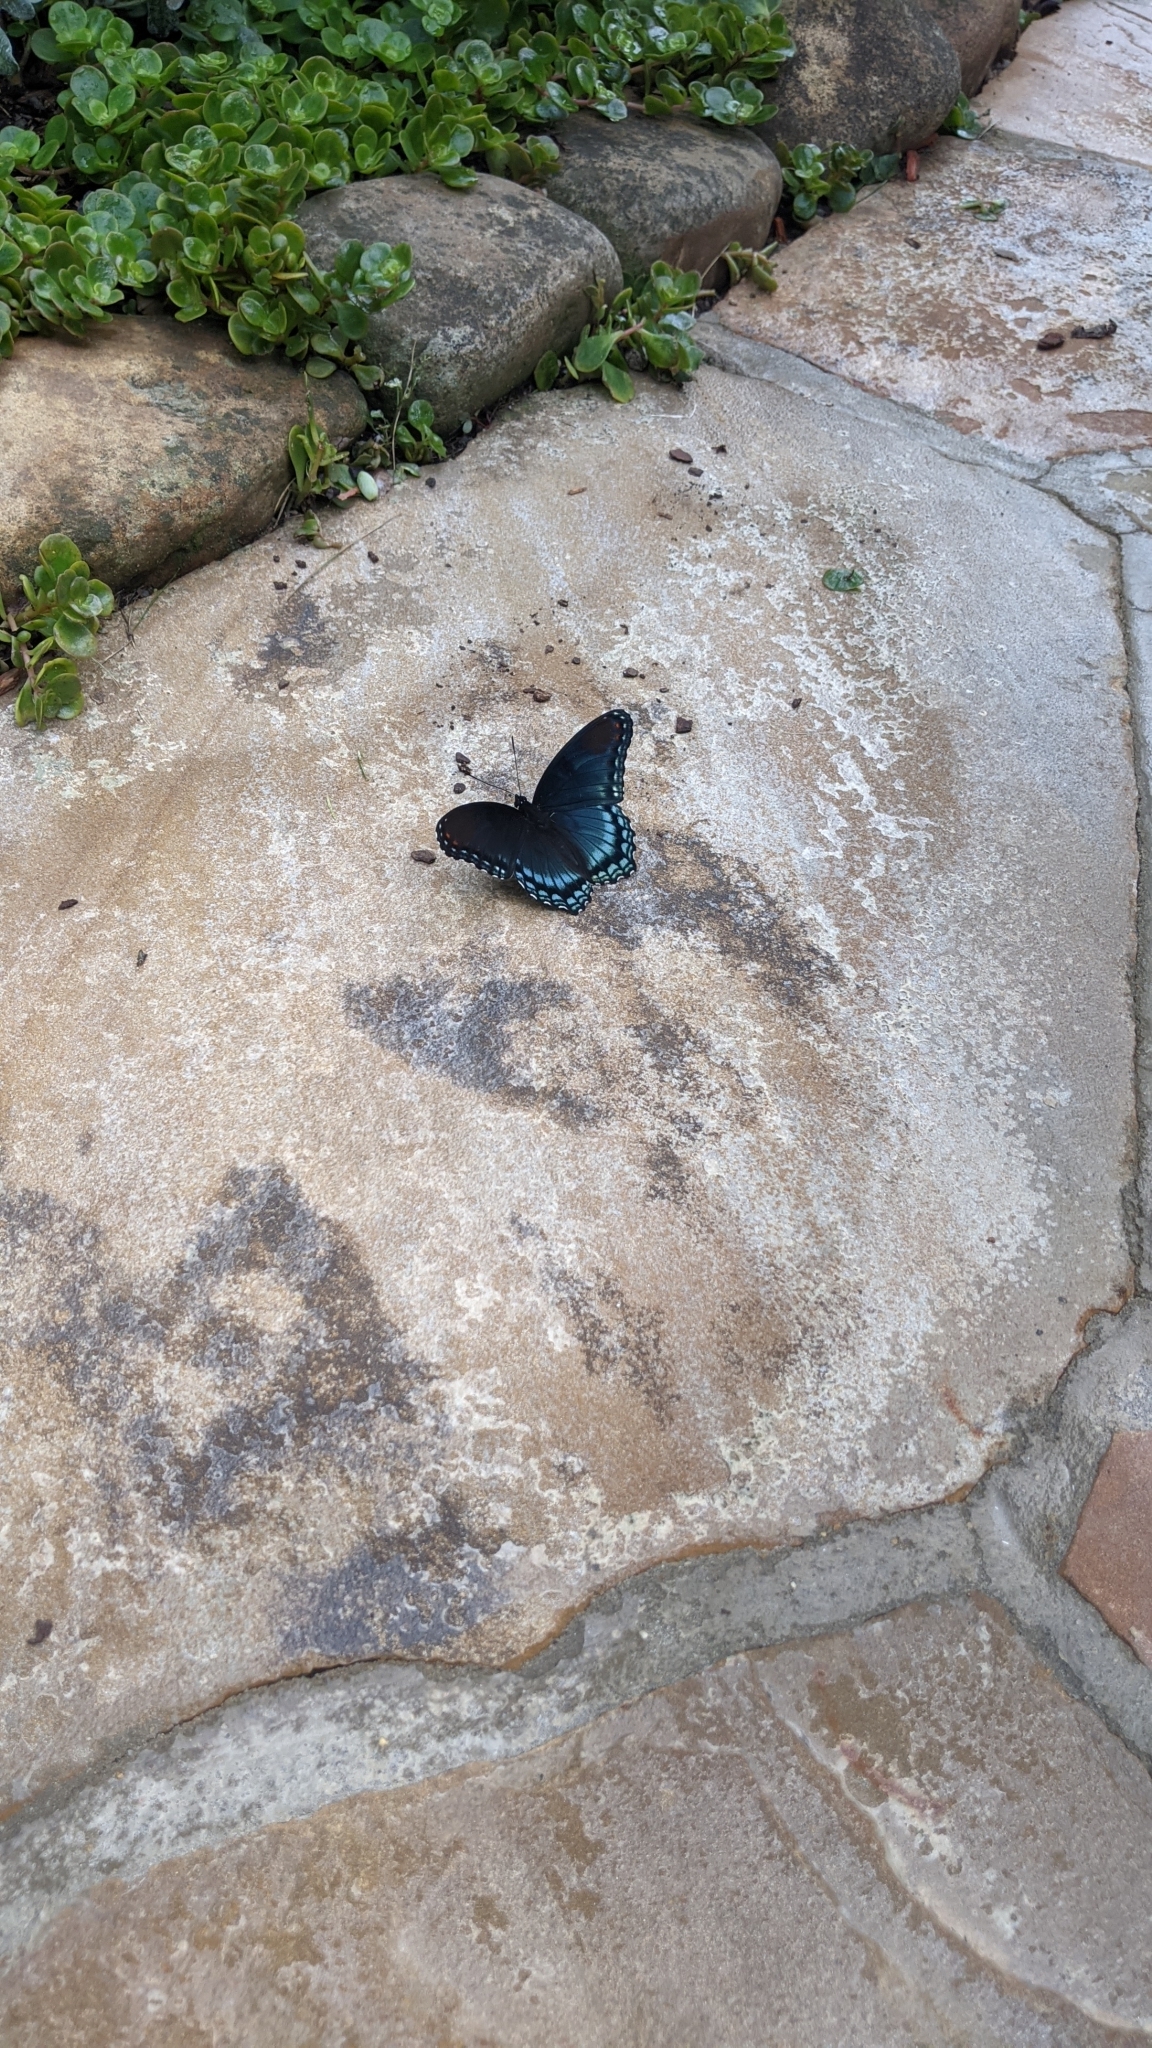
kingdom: Animalia
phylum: Arthropoda
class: Insecta
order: Lepidoptera
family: Nymphalidae
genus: Limenitis
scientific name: Limenitis astyanax
